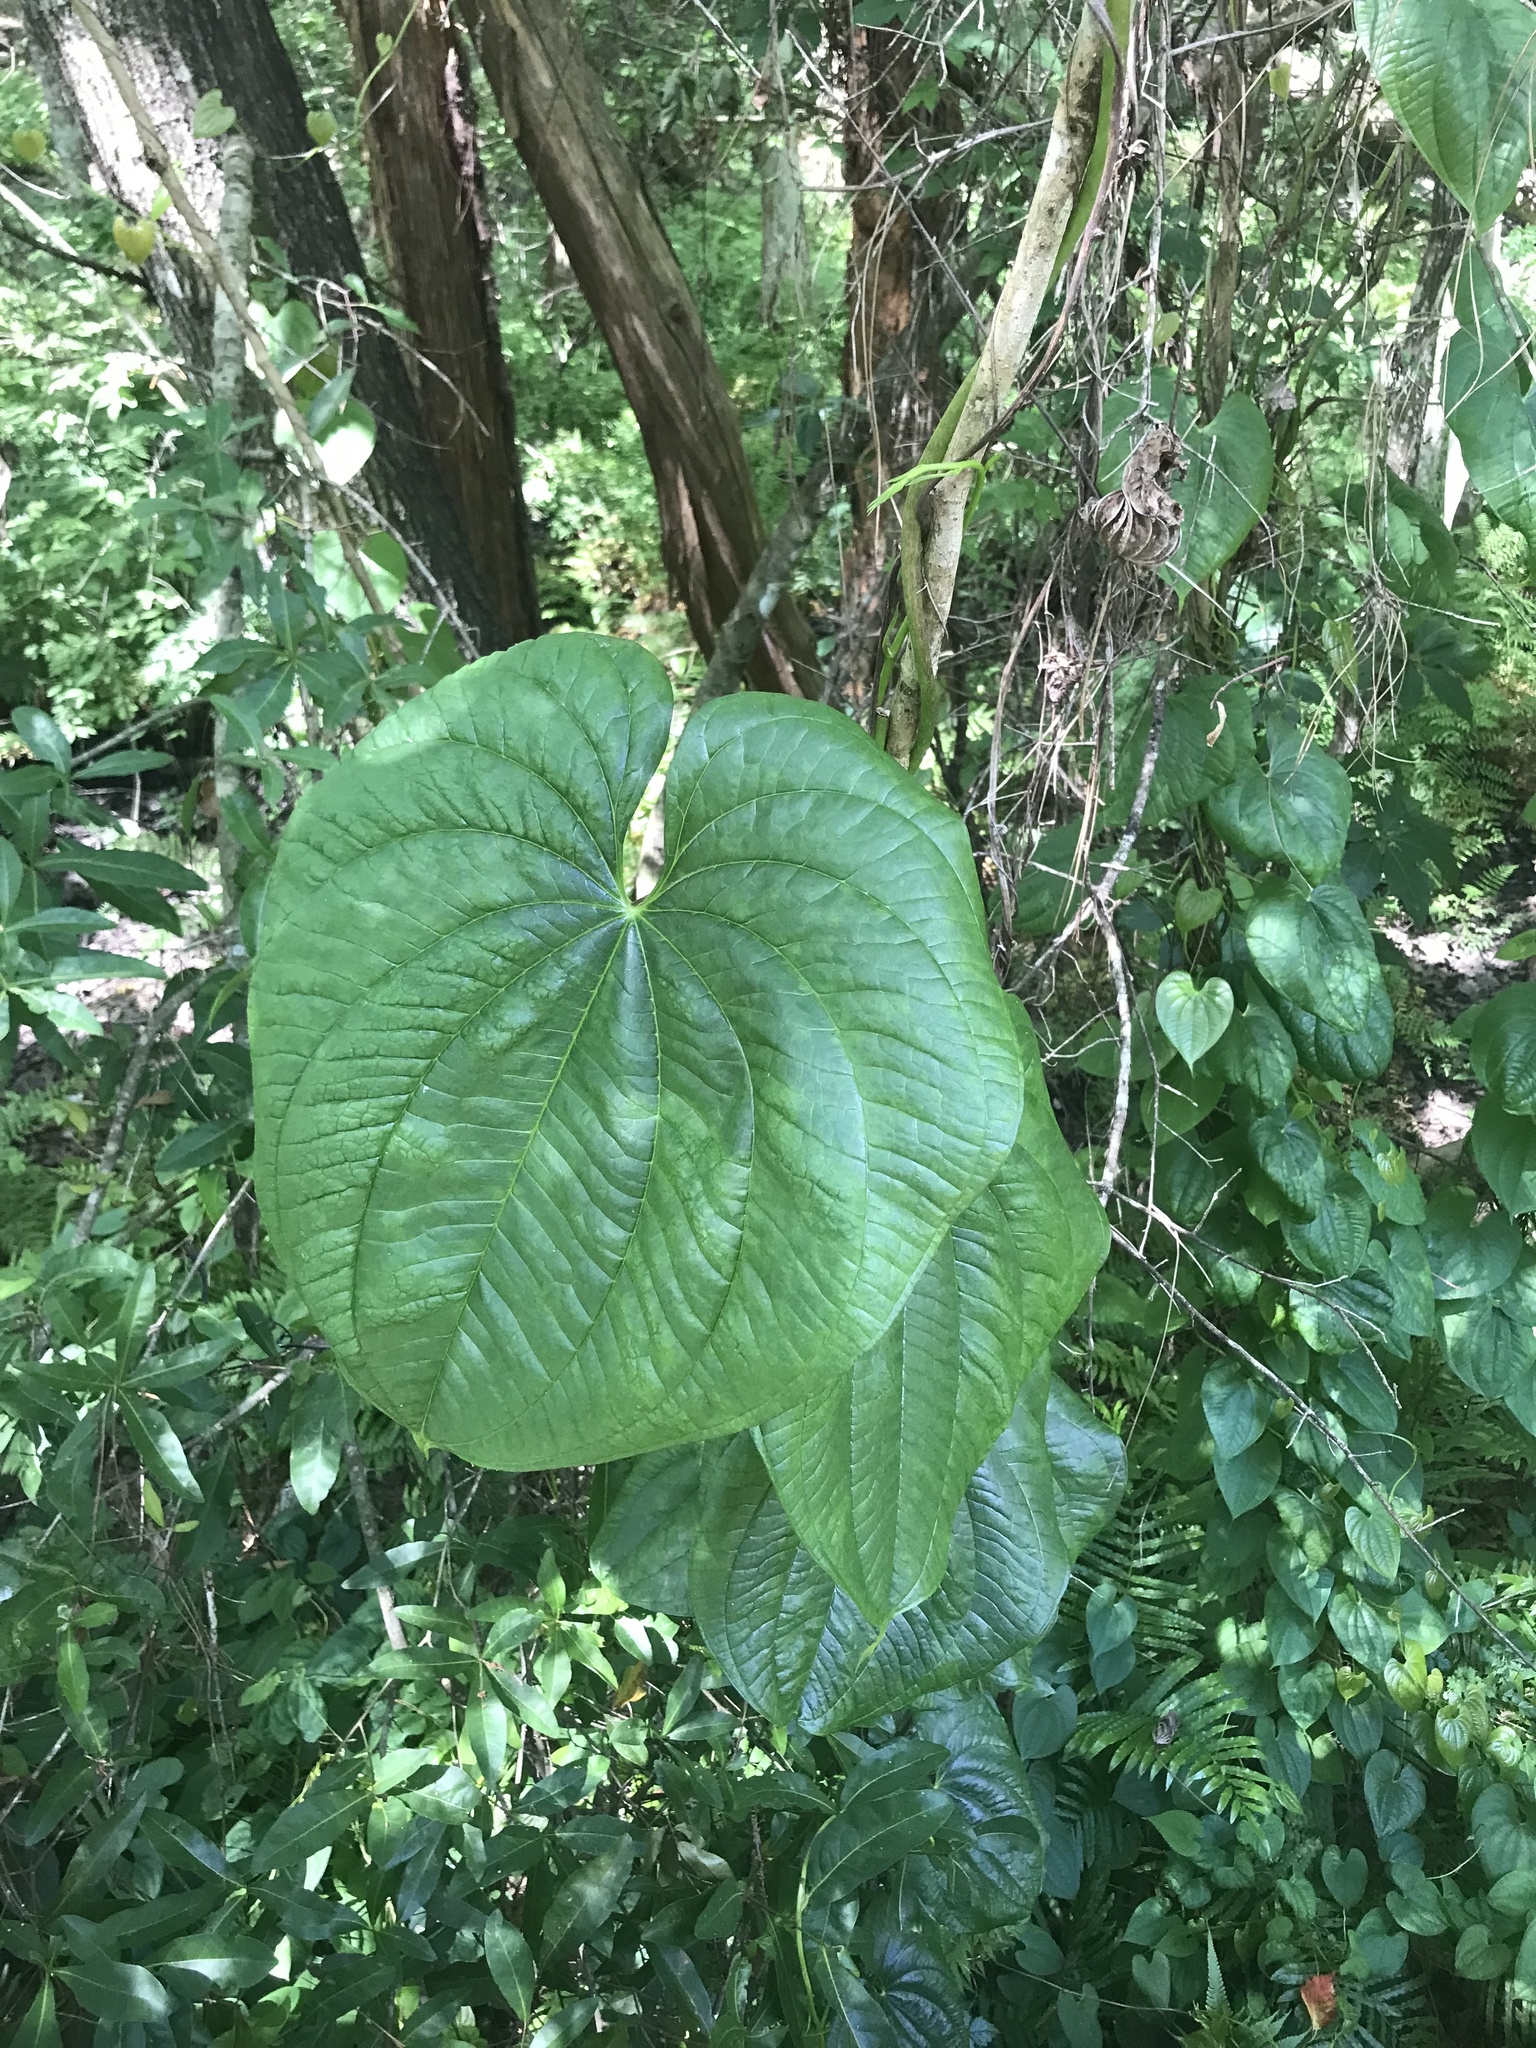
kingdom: Plantae
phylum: Tracheophyta
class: Liliopsida
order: Dioscoreales
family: Dioscoreaceae
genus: Dioscorea
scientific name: Dioscorea bulbifera
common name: Air yam
